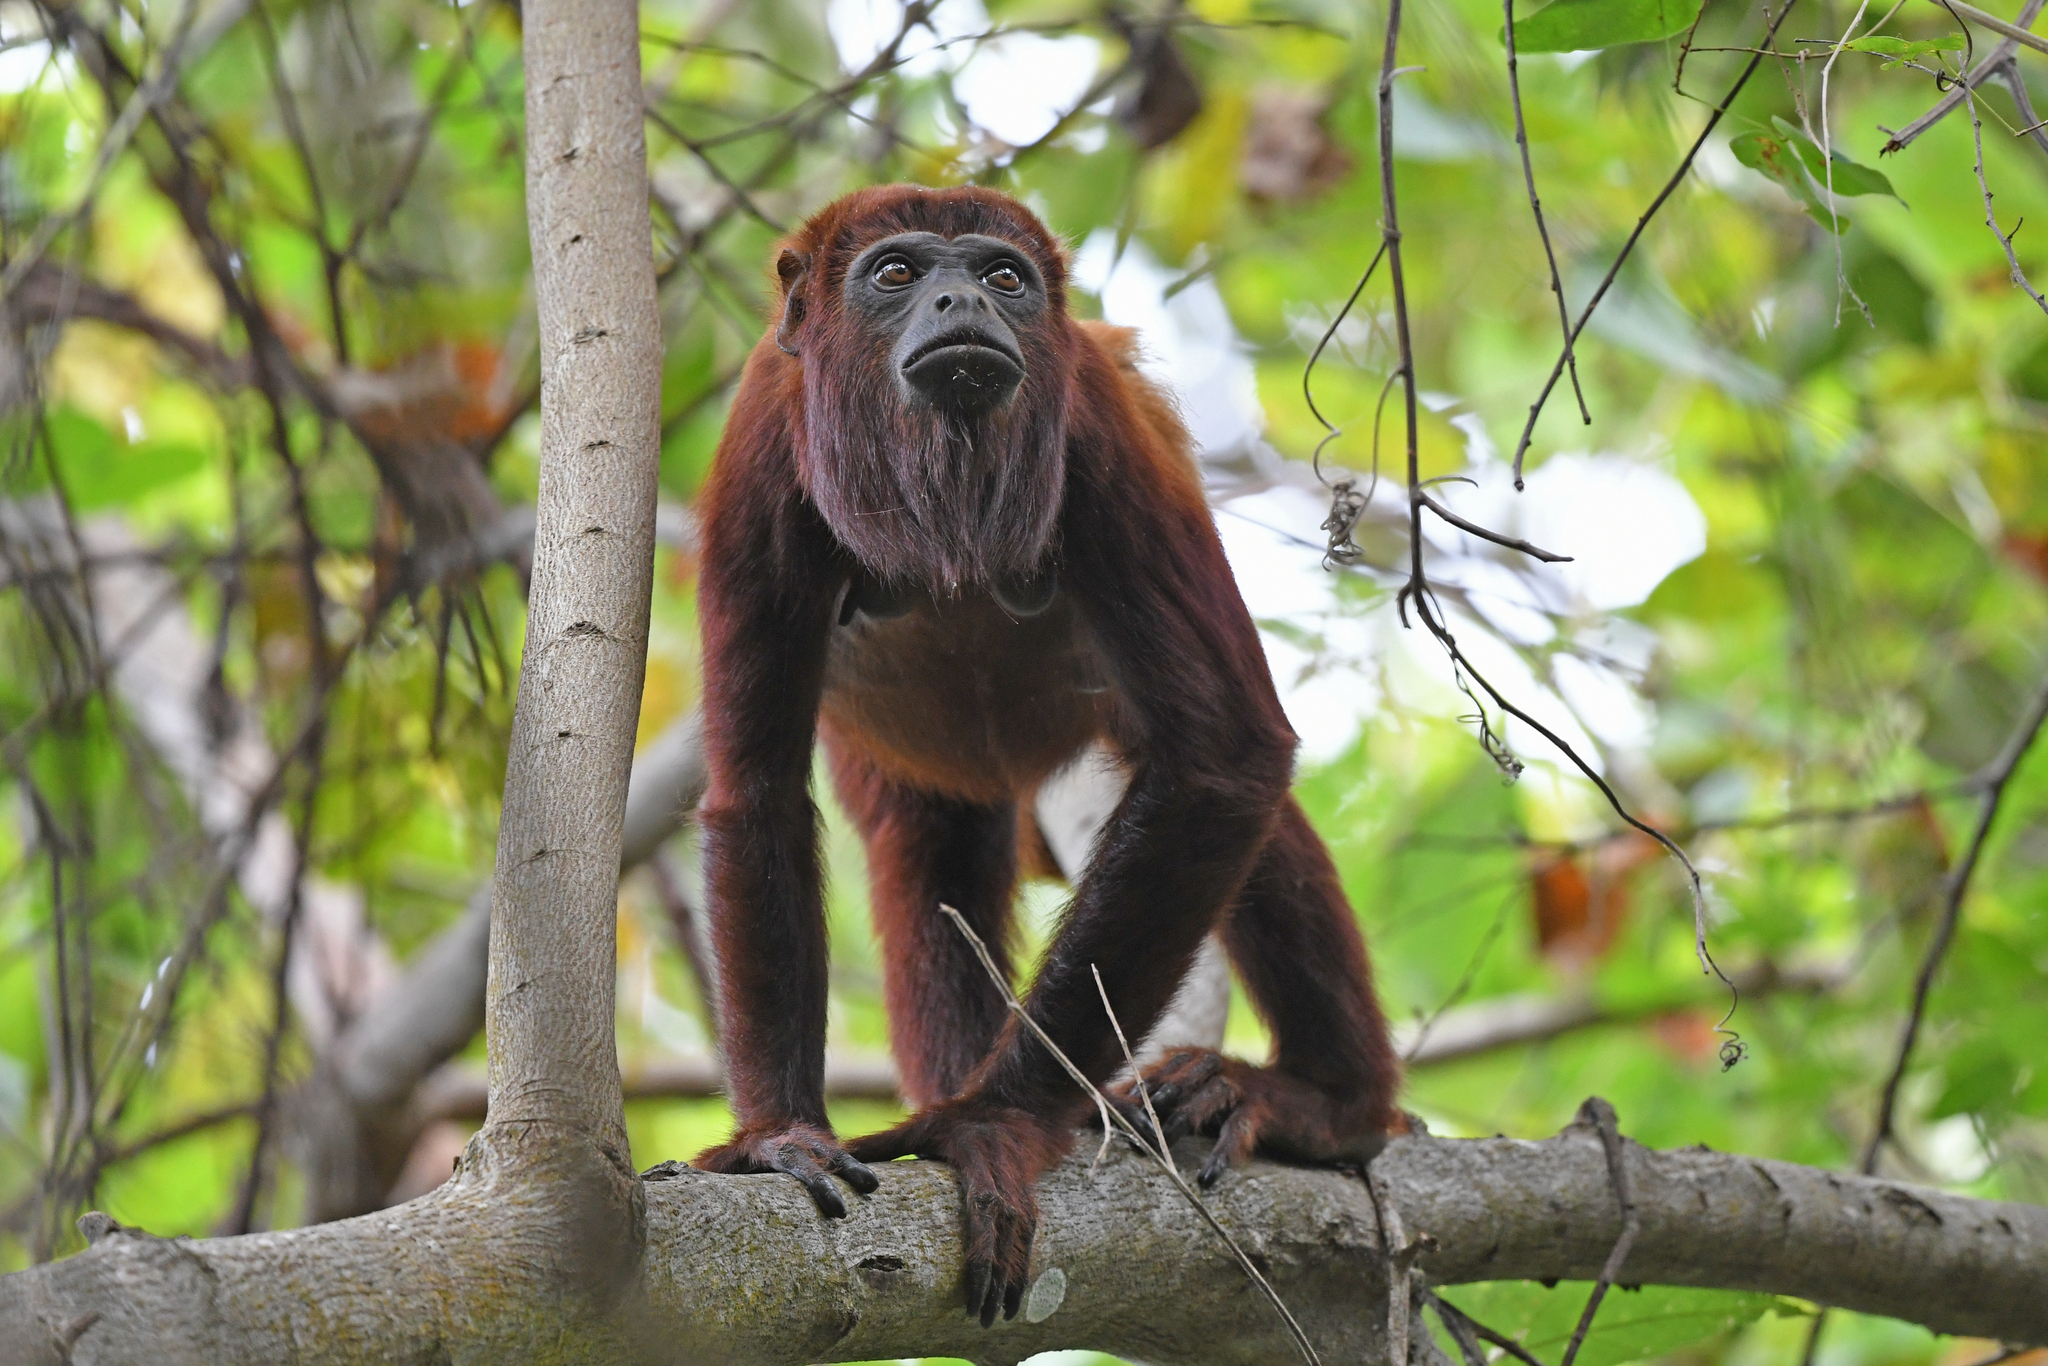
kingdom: Animalia
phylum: Chordata
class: Mammalia
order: Primates
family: Atelidae
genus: Alouatta
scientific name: Alouatta seniculus
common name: Venezuelan red howler
